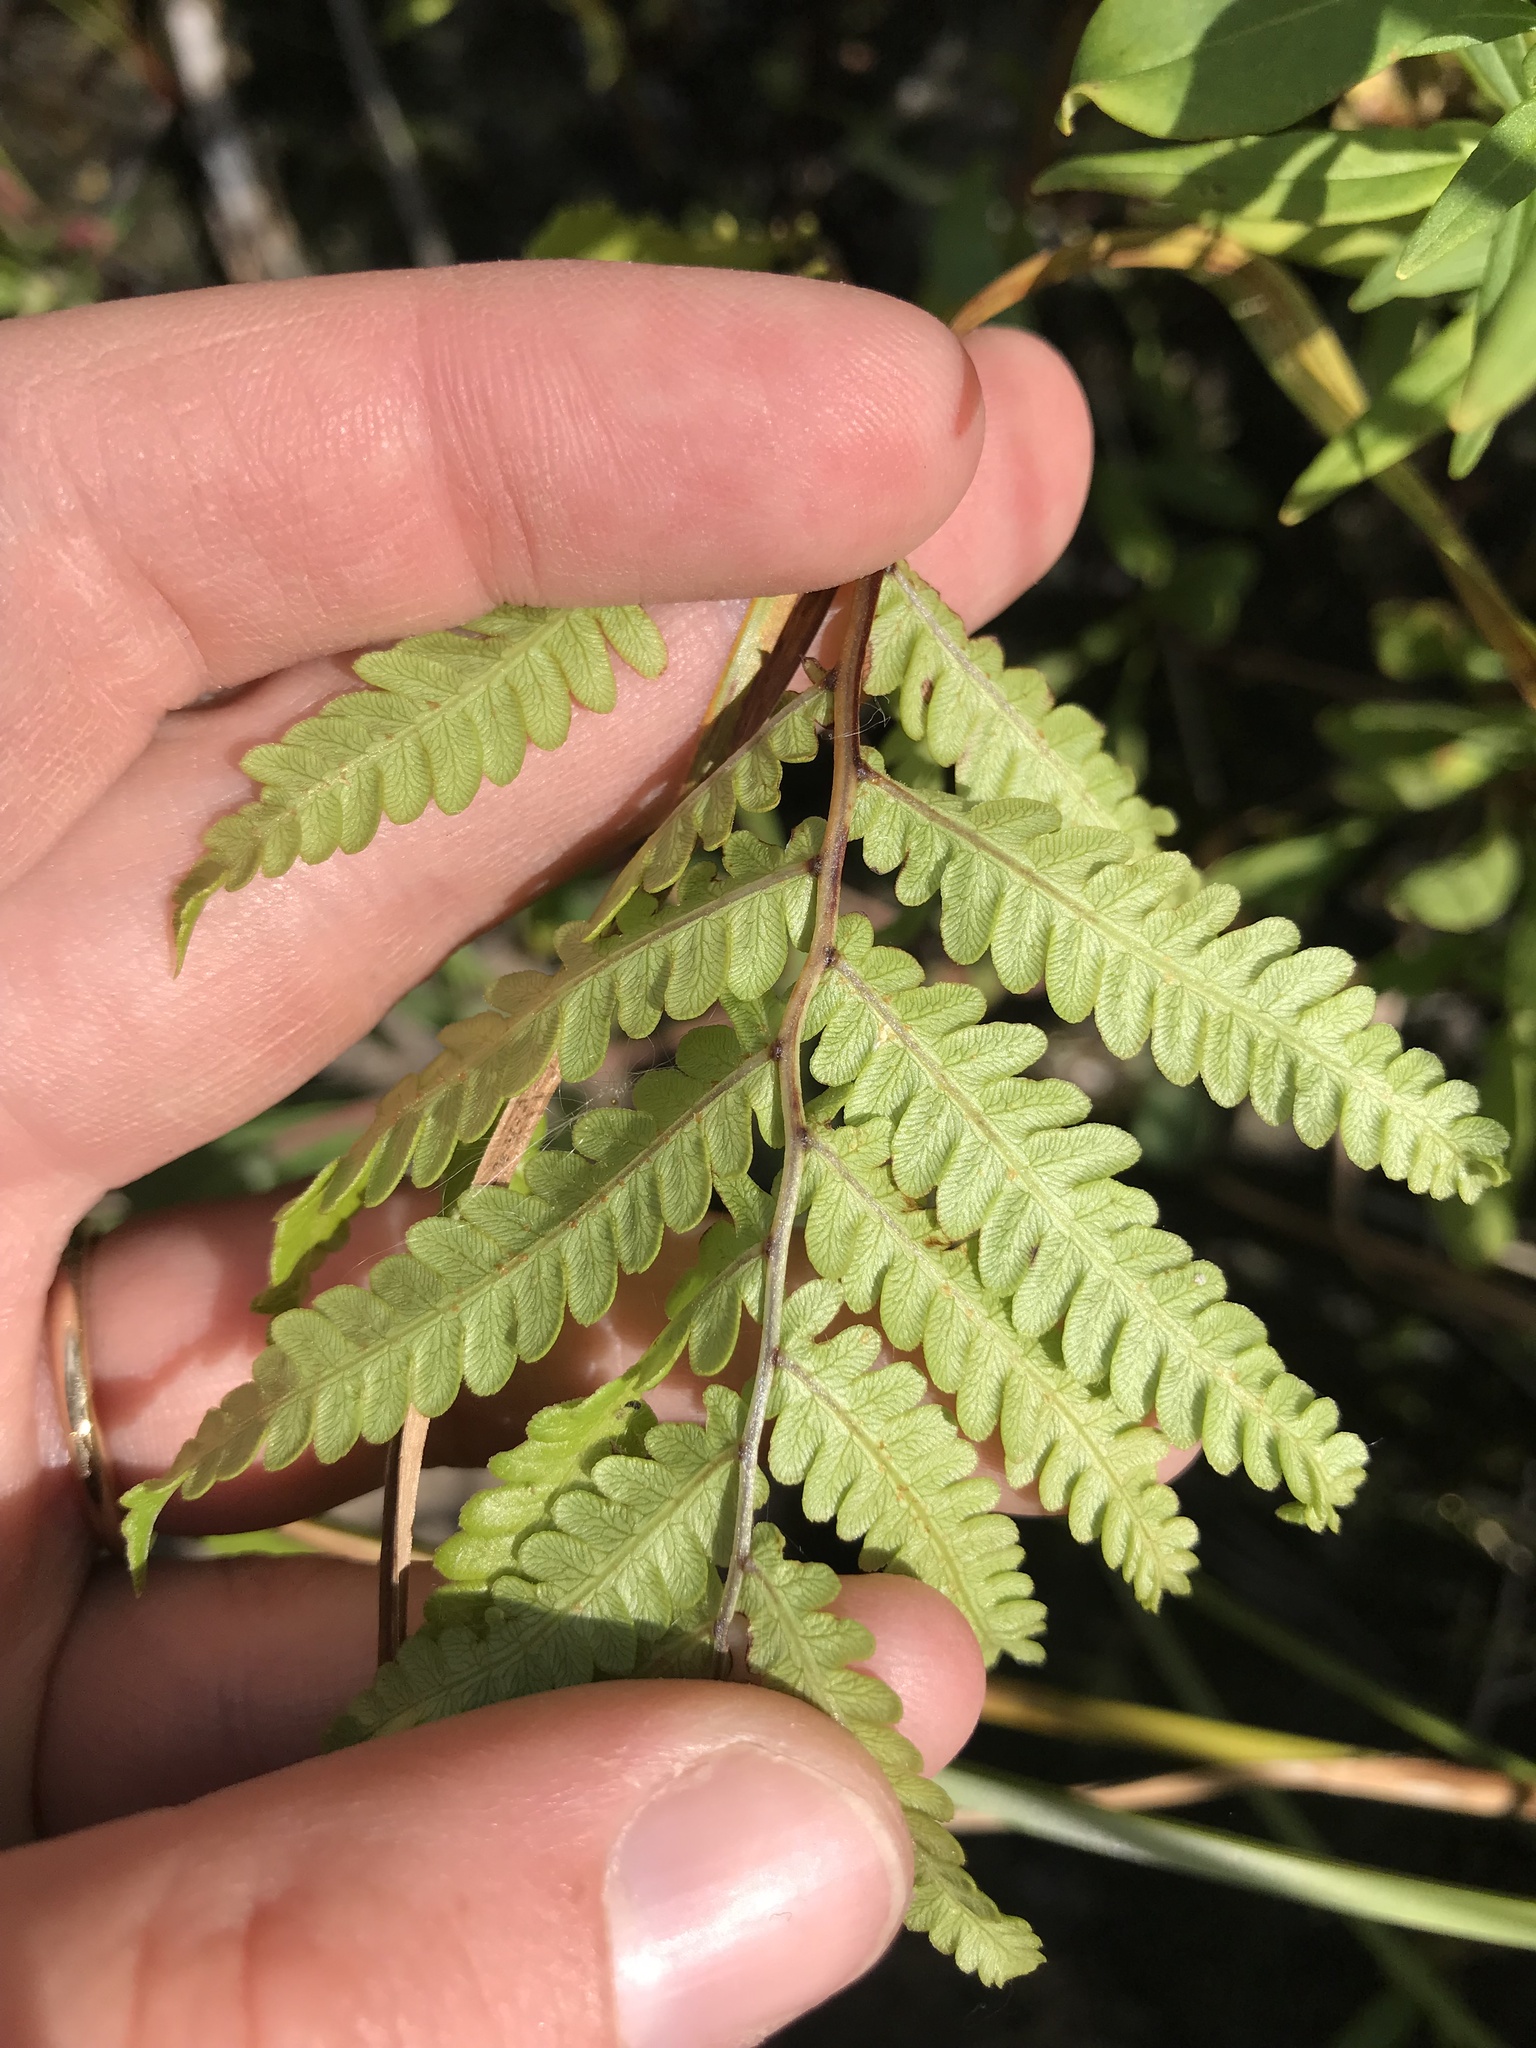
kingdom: Plantae
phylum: Tracheophyta
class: Polypodiopsida
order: Polypodiales
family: Blechnaceae
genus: Anchistea
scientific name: Anchistea virginica
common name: Virginia chain fern
